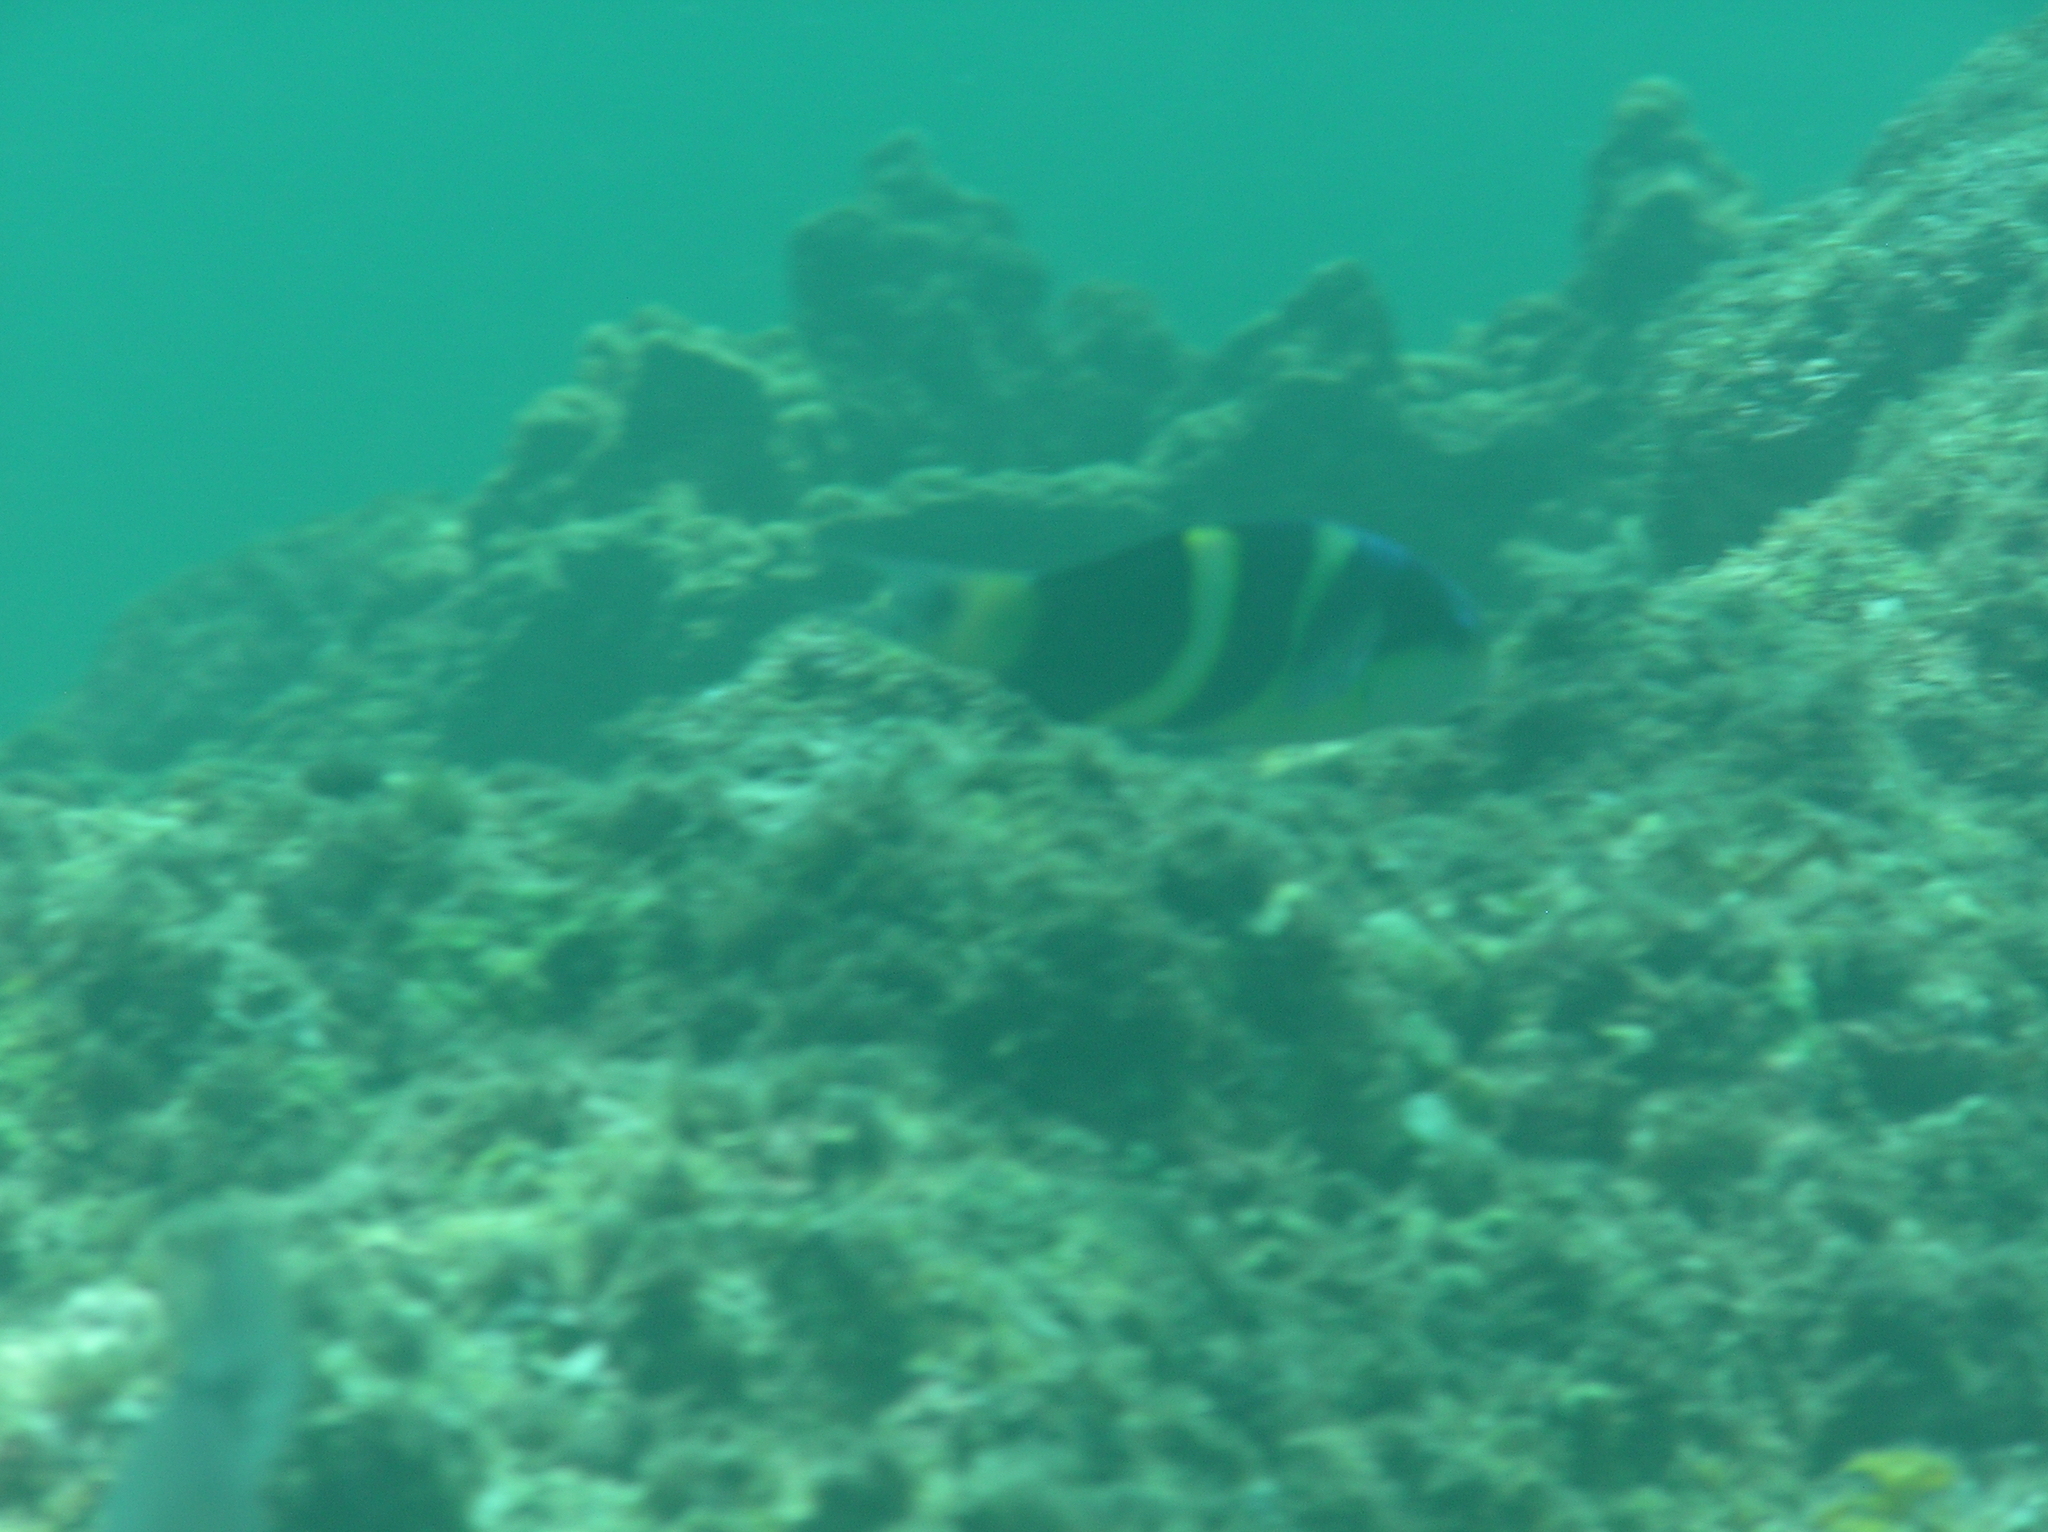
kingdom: Animalia
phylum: Chordata
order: Perciformes
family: Labridae
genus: Thalassoma
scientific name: Thalassoma nigrofasciatum
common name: Black-barred wrasse
